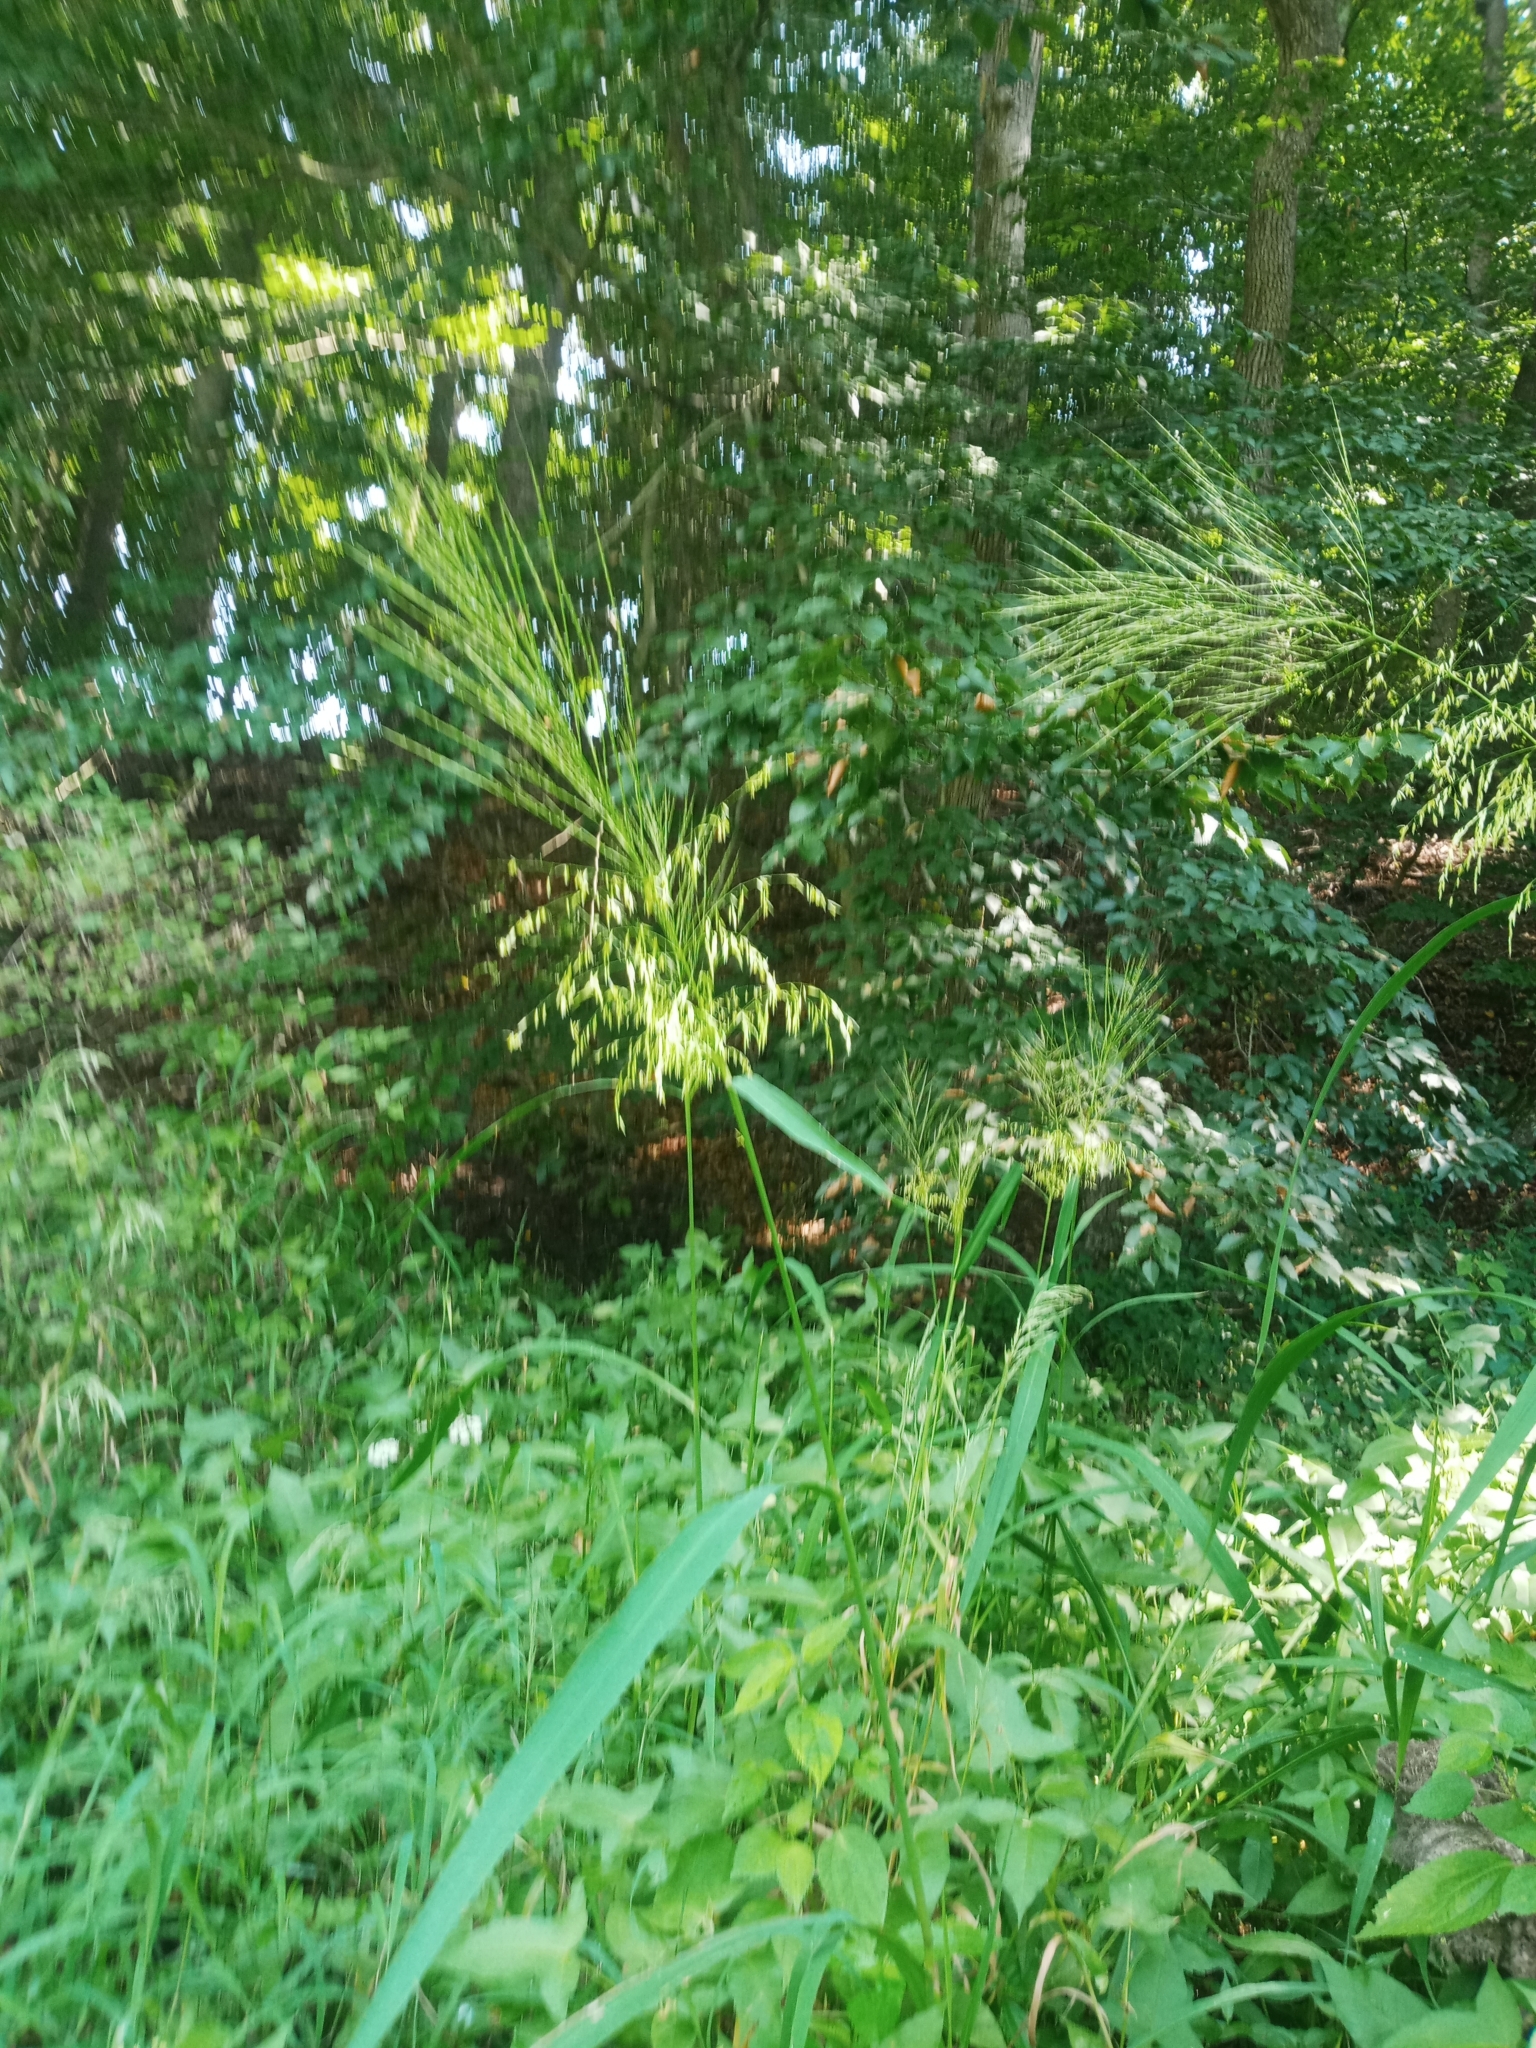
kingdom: Plantae
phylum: Tracheophyta
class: Liliopsida
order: Poales
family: Poaceae
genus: Zizania
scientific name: Zizania aquatica
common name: Annual wildrice
